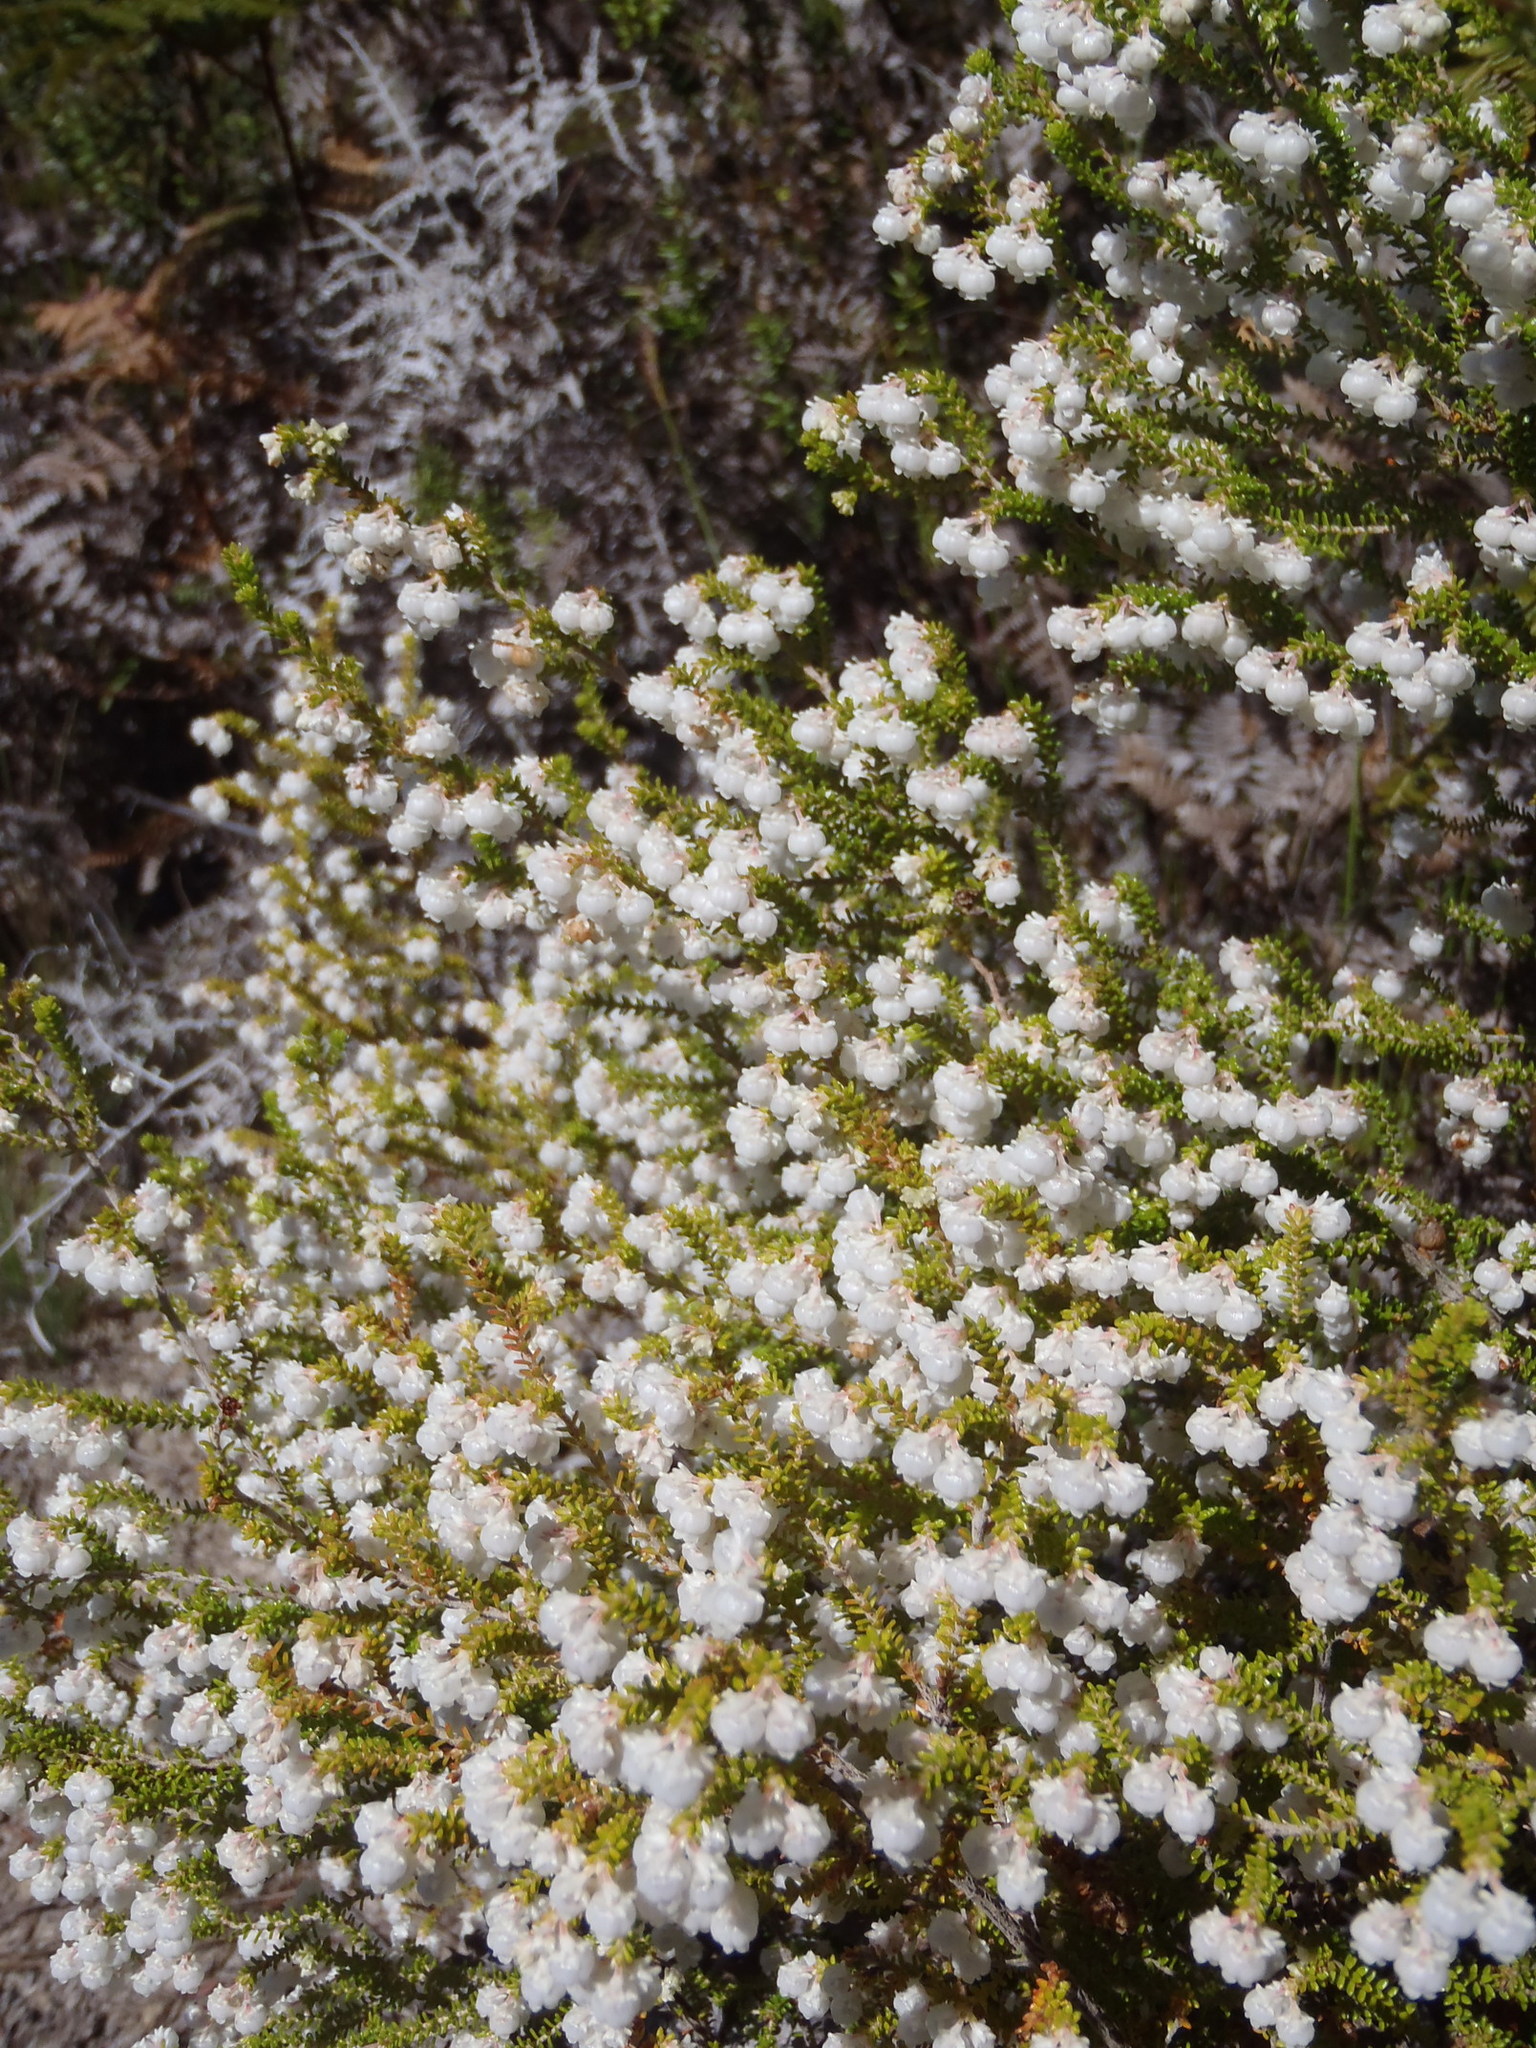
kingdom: Plantae
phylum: Tracheophyta
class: Magnoliopsida
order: Ericales
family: Ericaceae
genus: Erica
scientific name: Erica formosa
